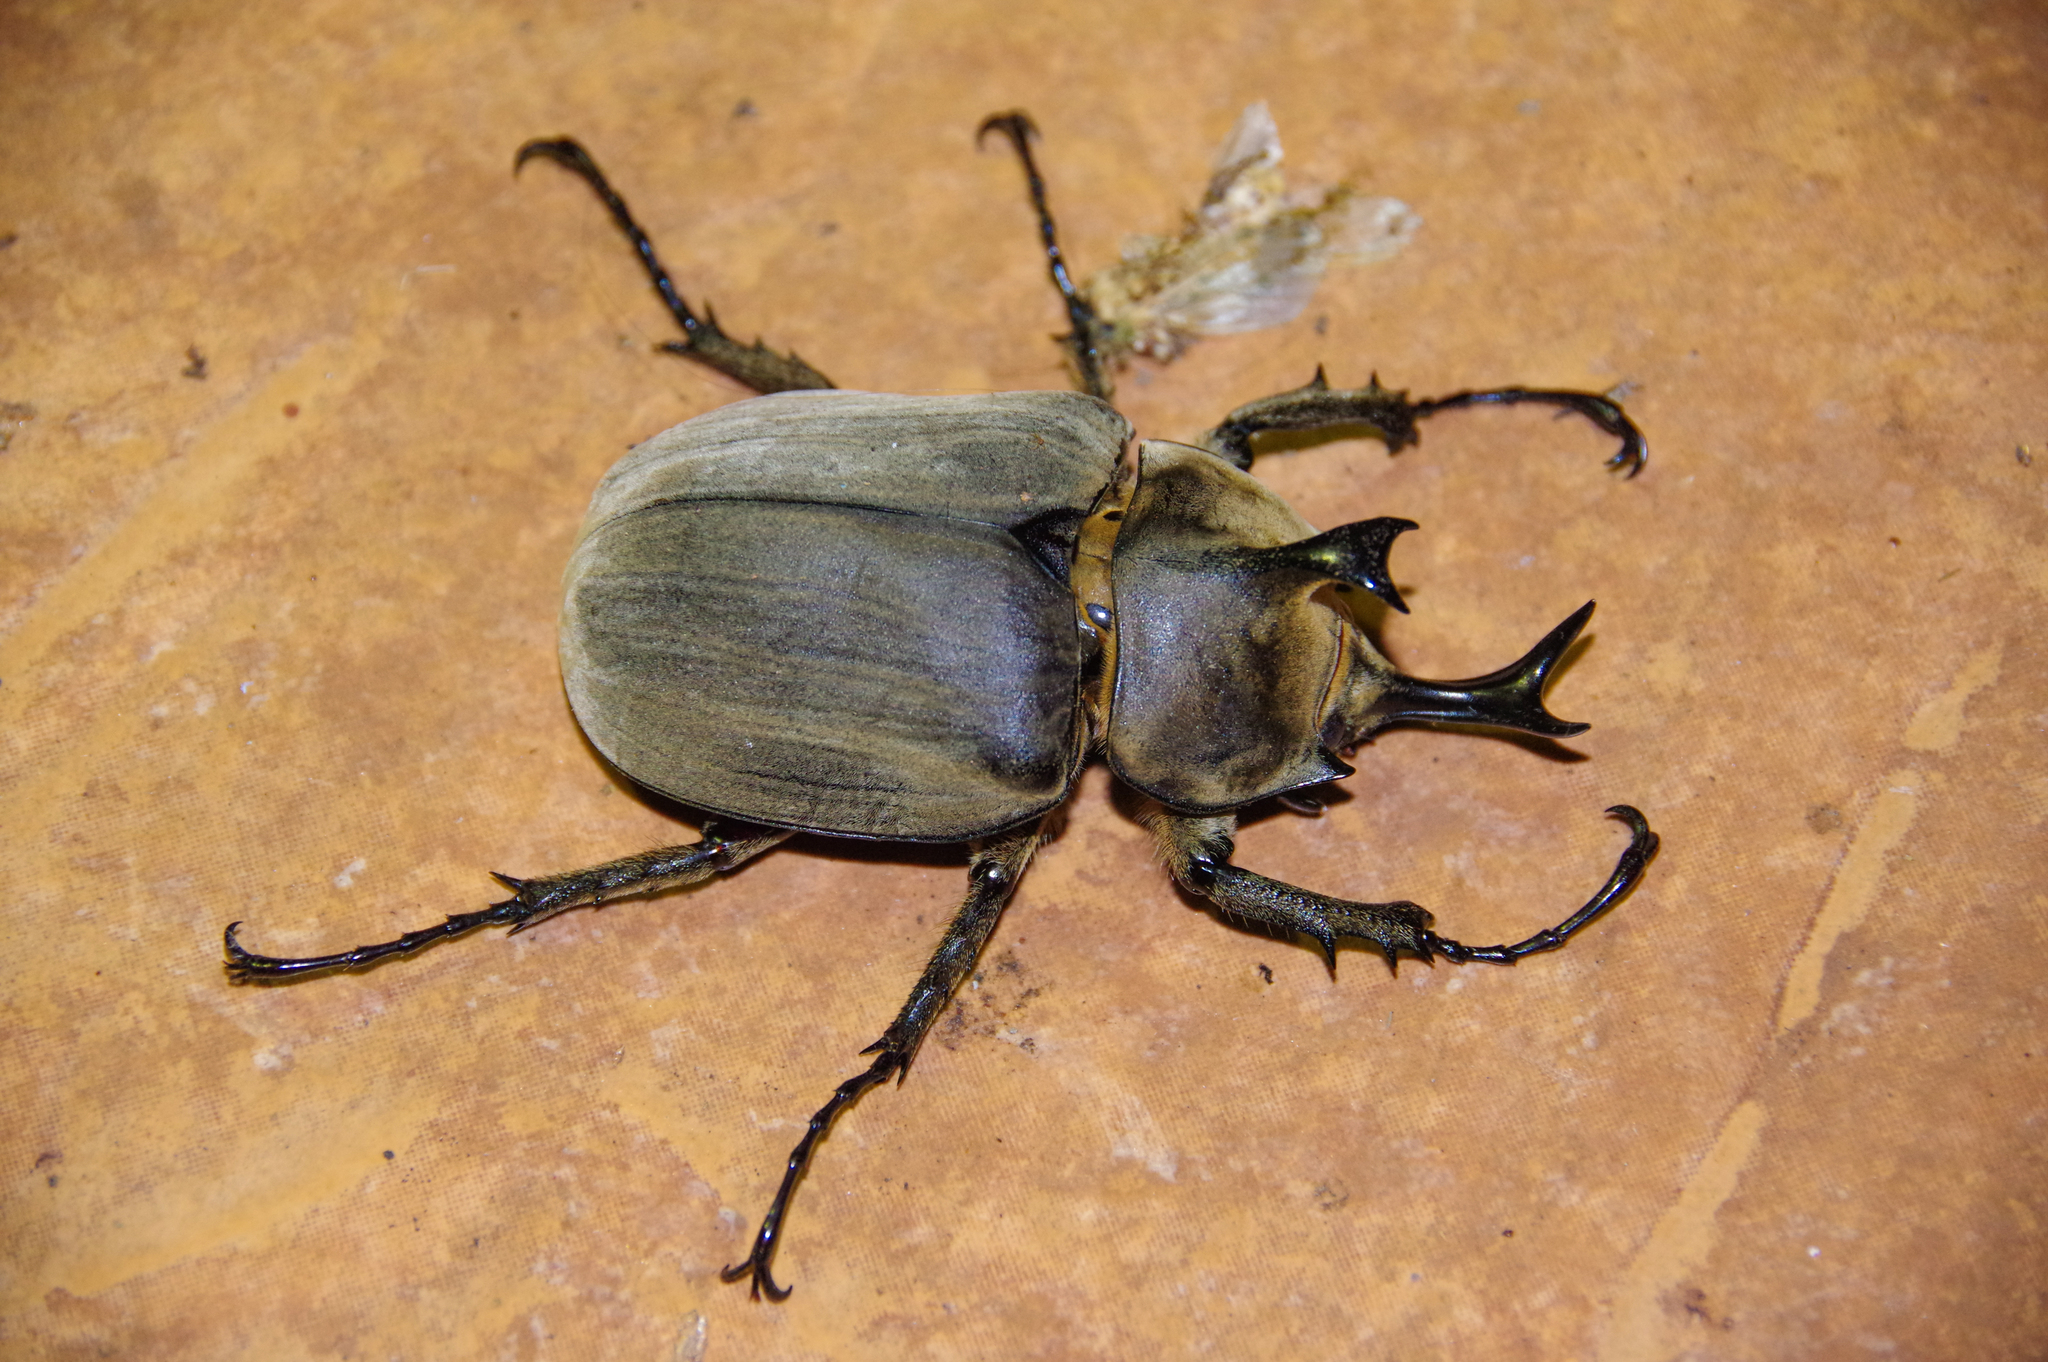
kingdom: Animalia
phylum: Arthropoda
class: Insecta
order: Coleoptera
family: Scarabaeidae
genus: Megasoma
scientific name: Megasoma anubis
